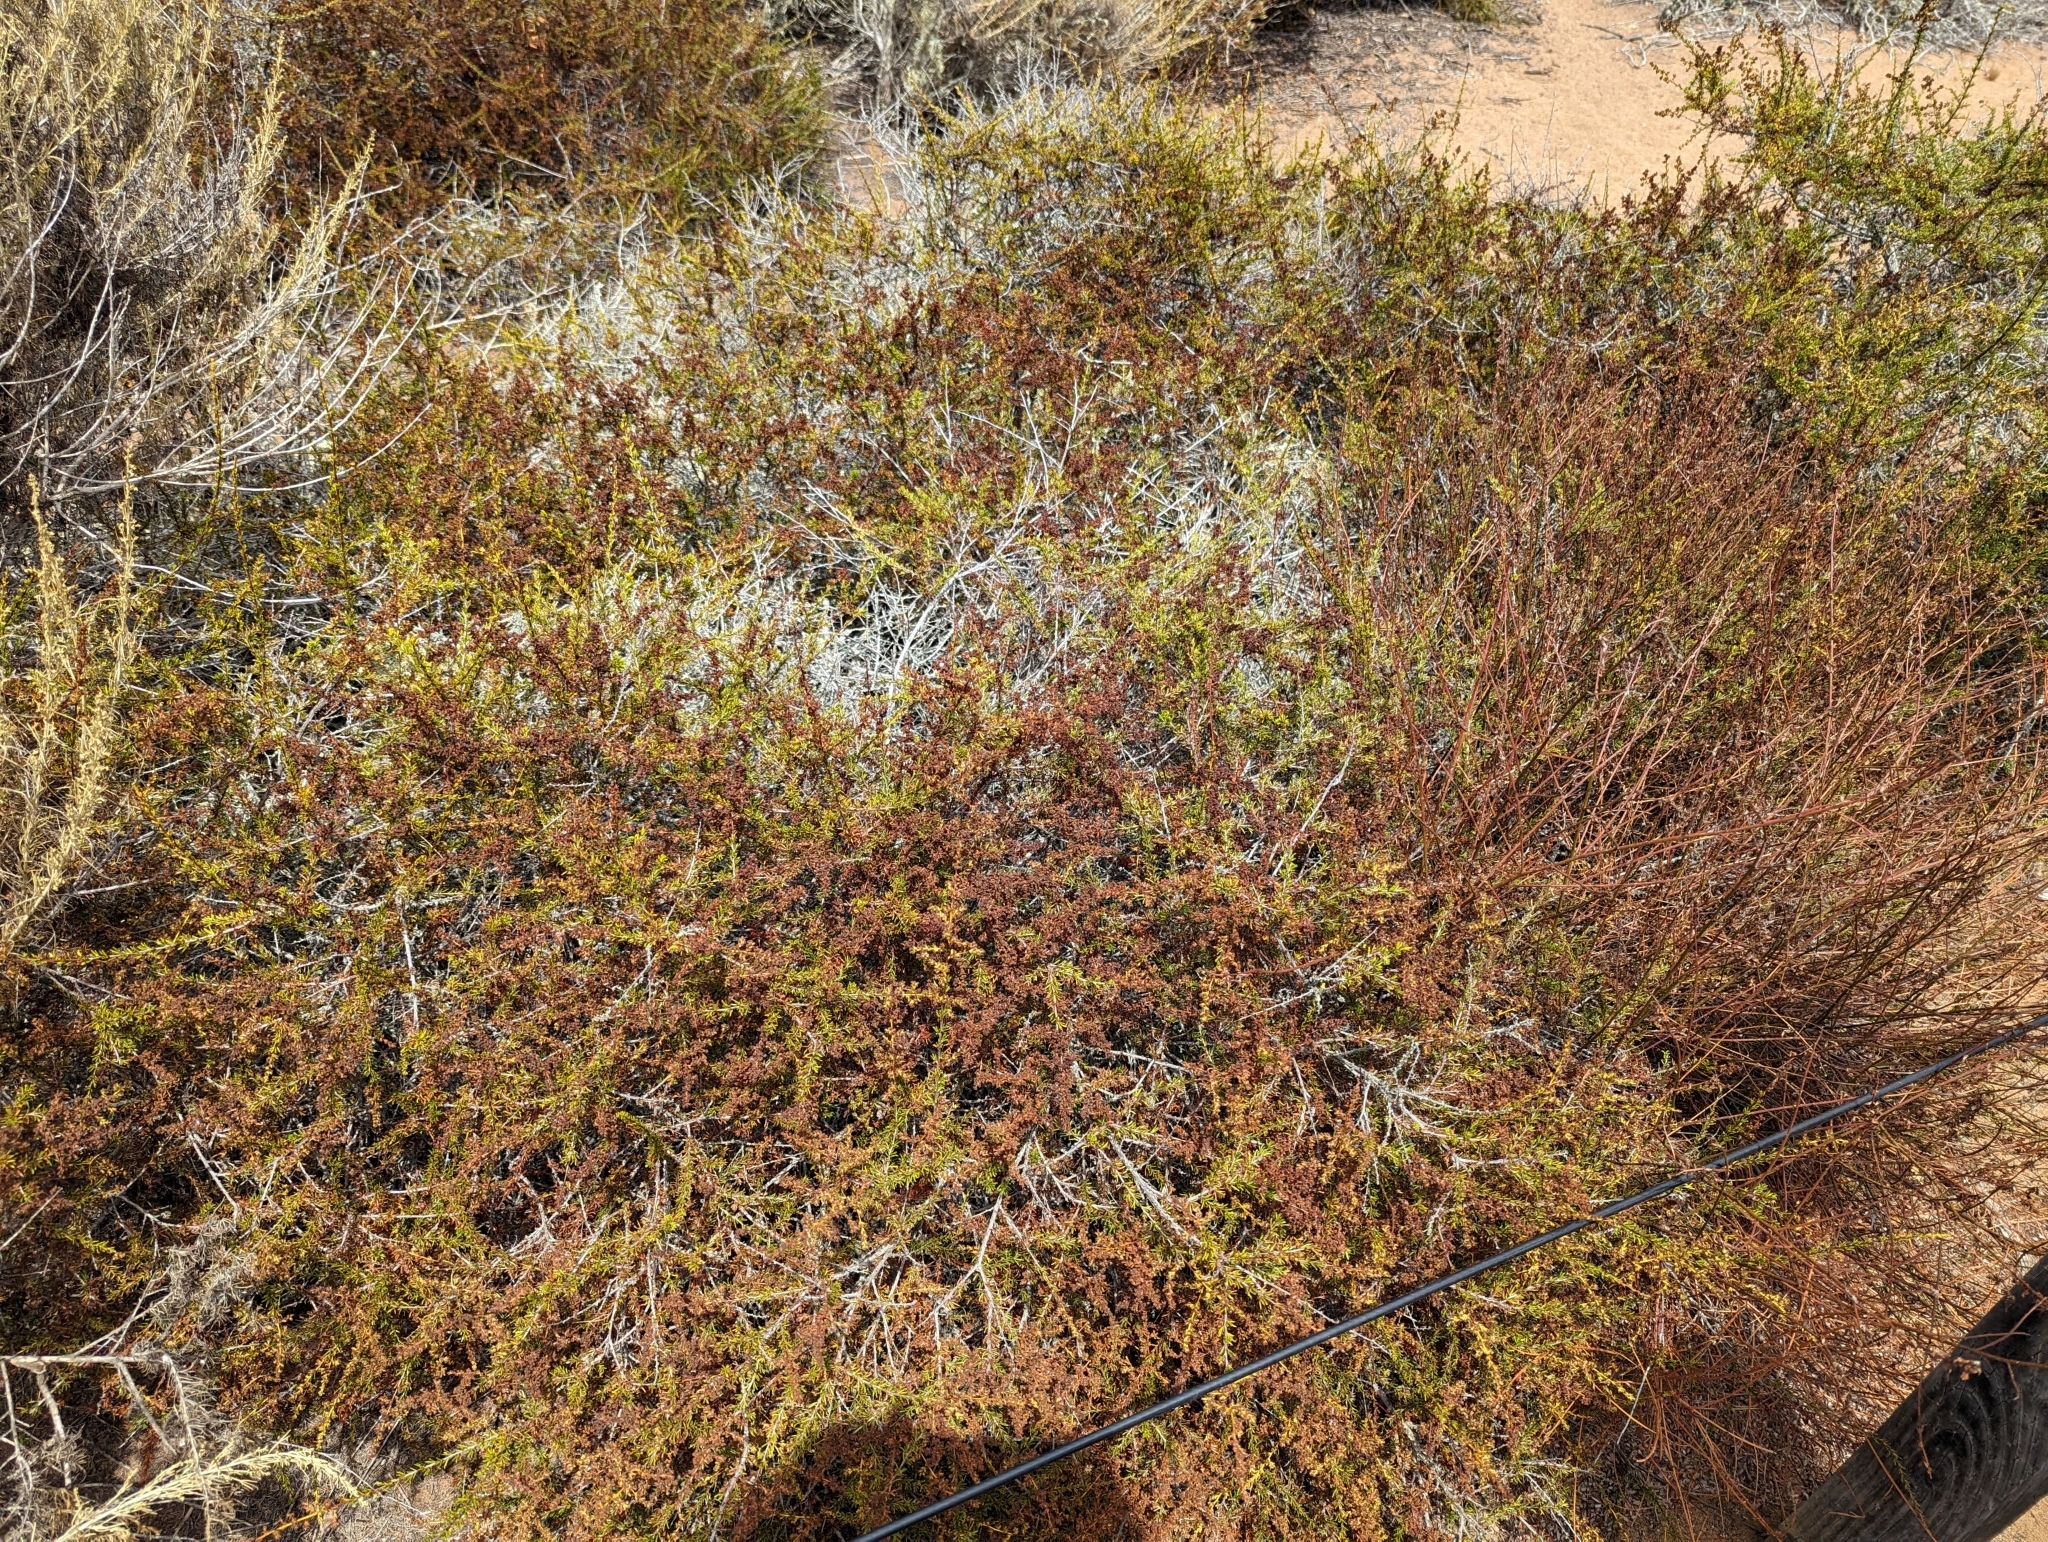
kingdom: Plantae
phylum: Tracheophyta
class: Magnoliopsida
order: Rosales
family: Rosaceae
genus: Adenostoma
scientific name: Adenostoma fasciculatum
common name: Chamise
